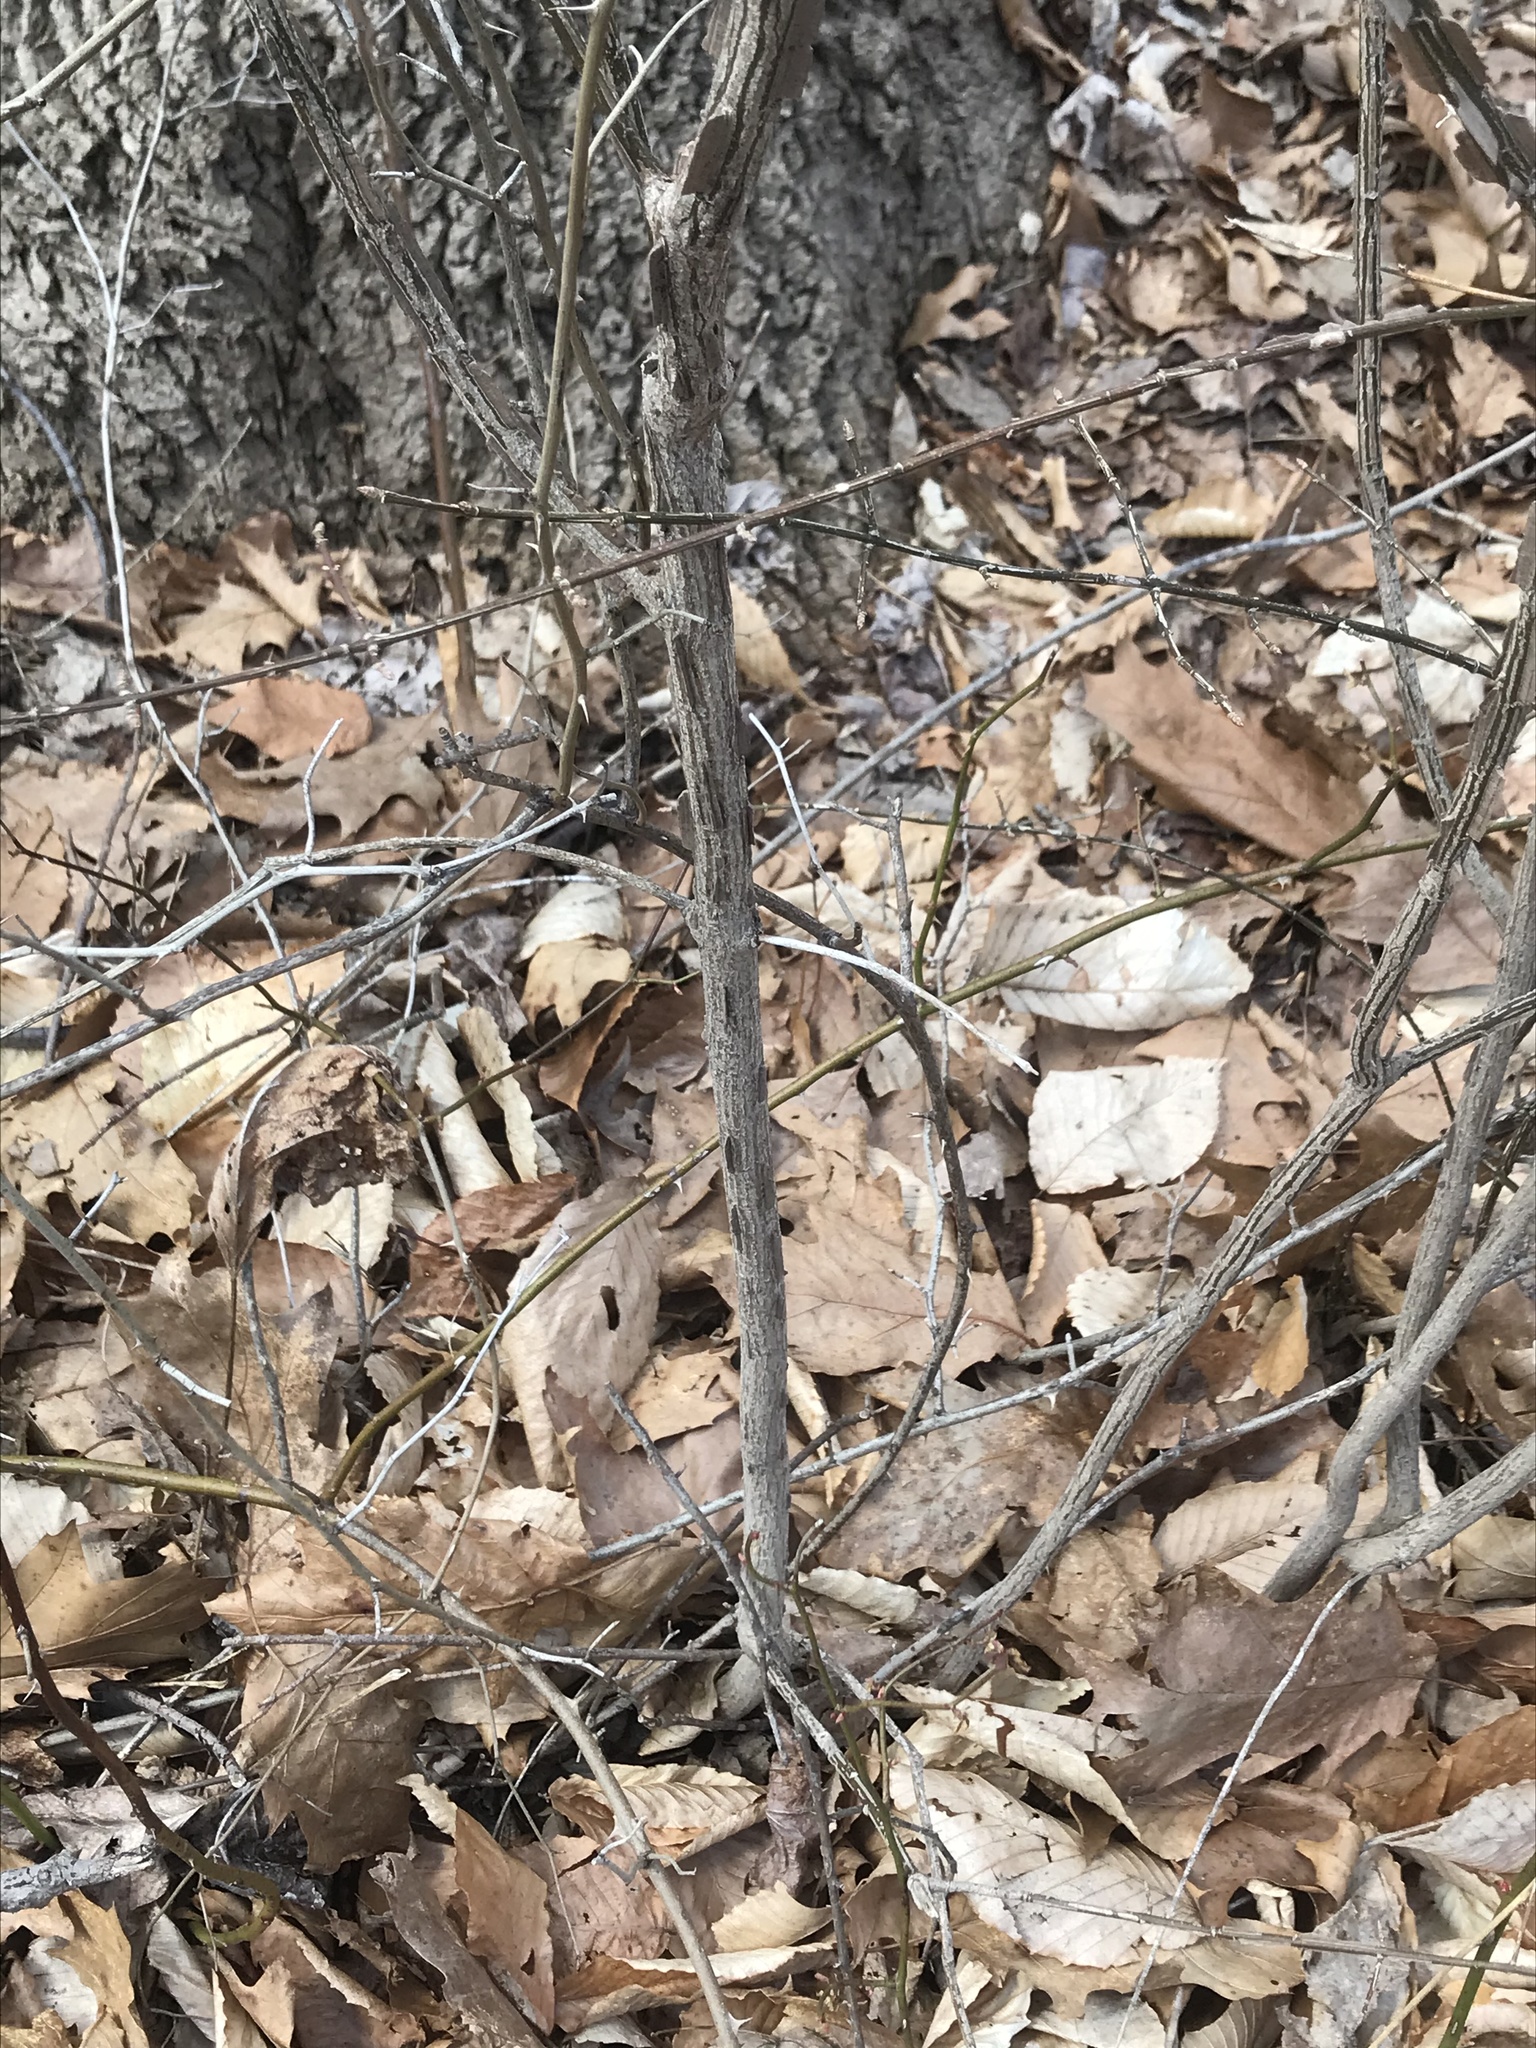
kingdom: Plantae
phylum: Tracheophyta
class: Magnoliopsida
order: Celastrales
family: Celastraceae
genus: Euonymus
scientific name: Euonymus alatus
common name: Winged euonymus
